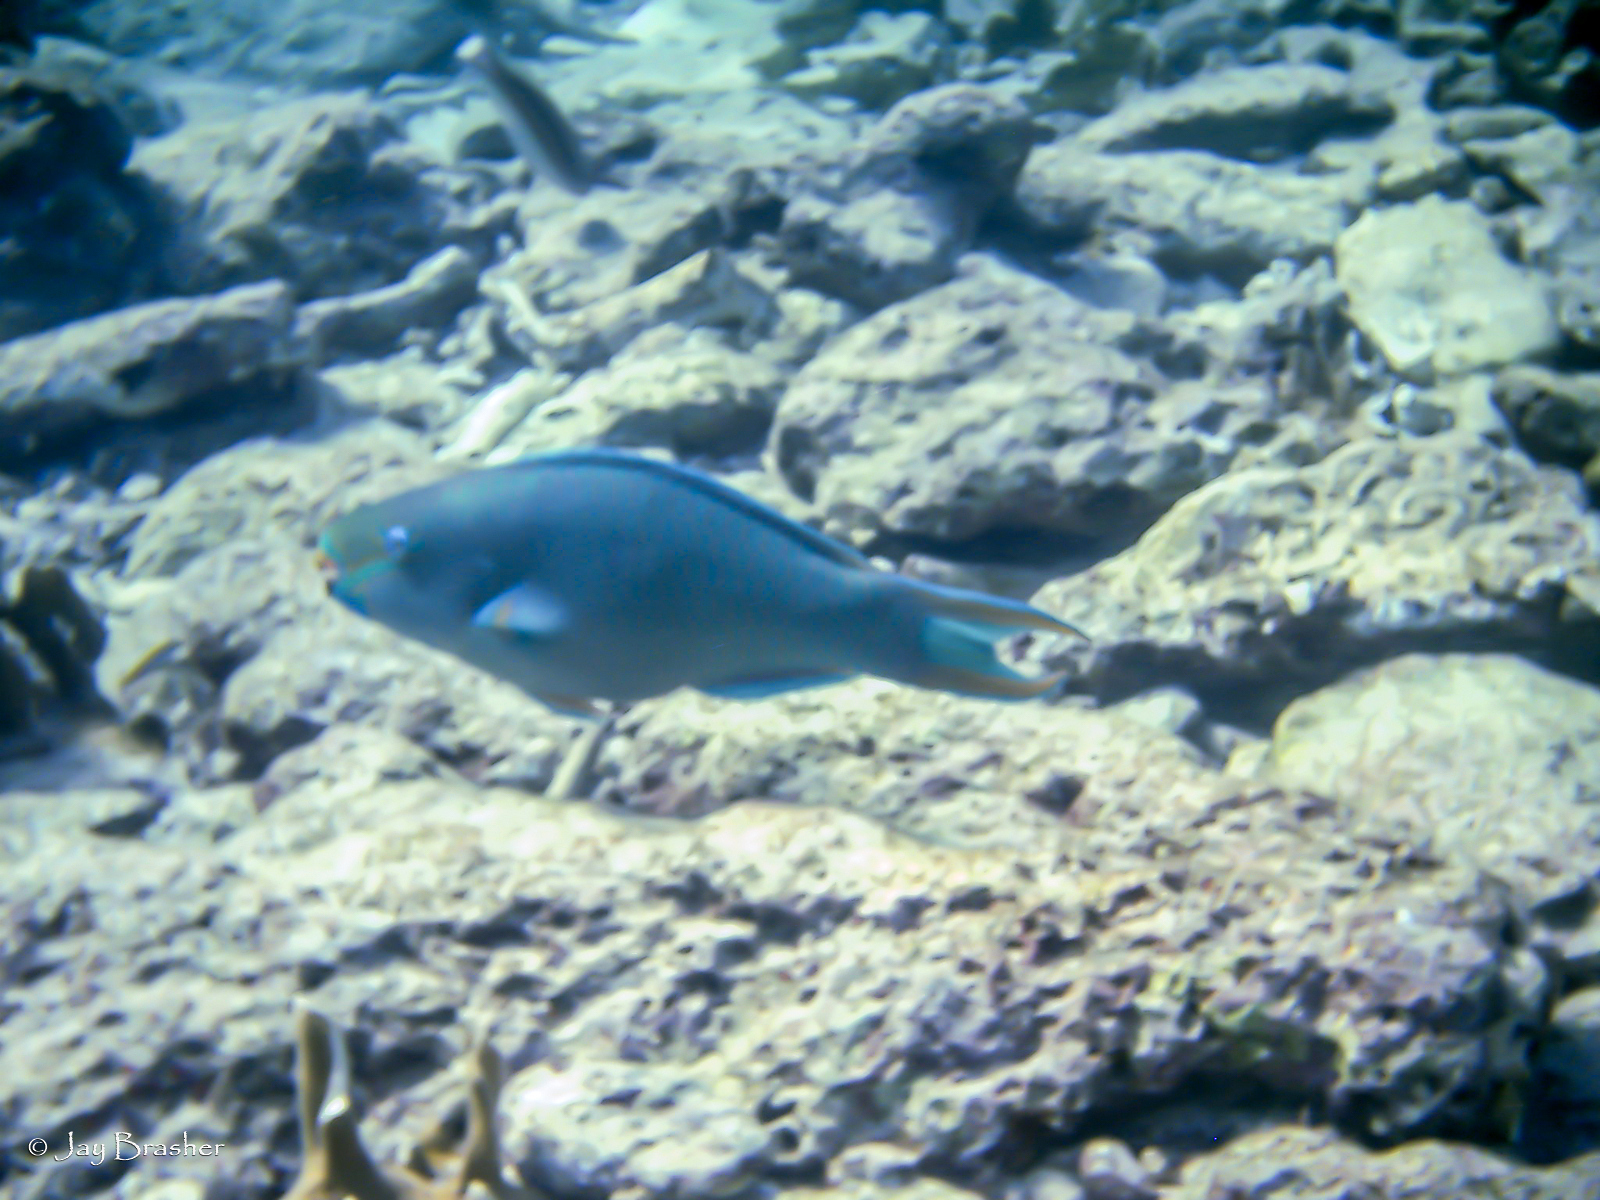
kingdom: Animalia
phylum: Chordata
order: Perciformes
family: Scaridae
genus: Scarus
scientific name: Scarus vetula
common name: Queen parrotfish
